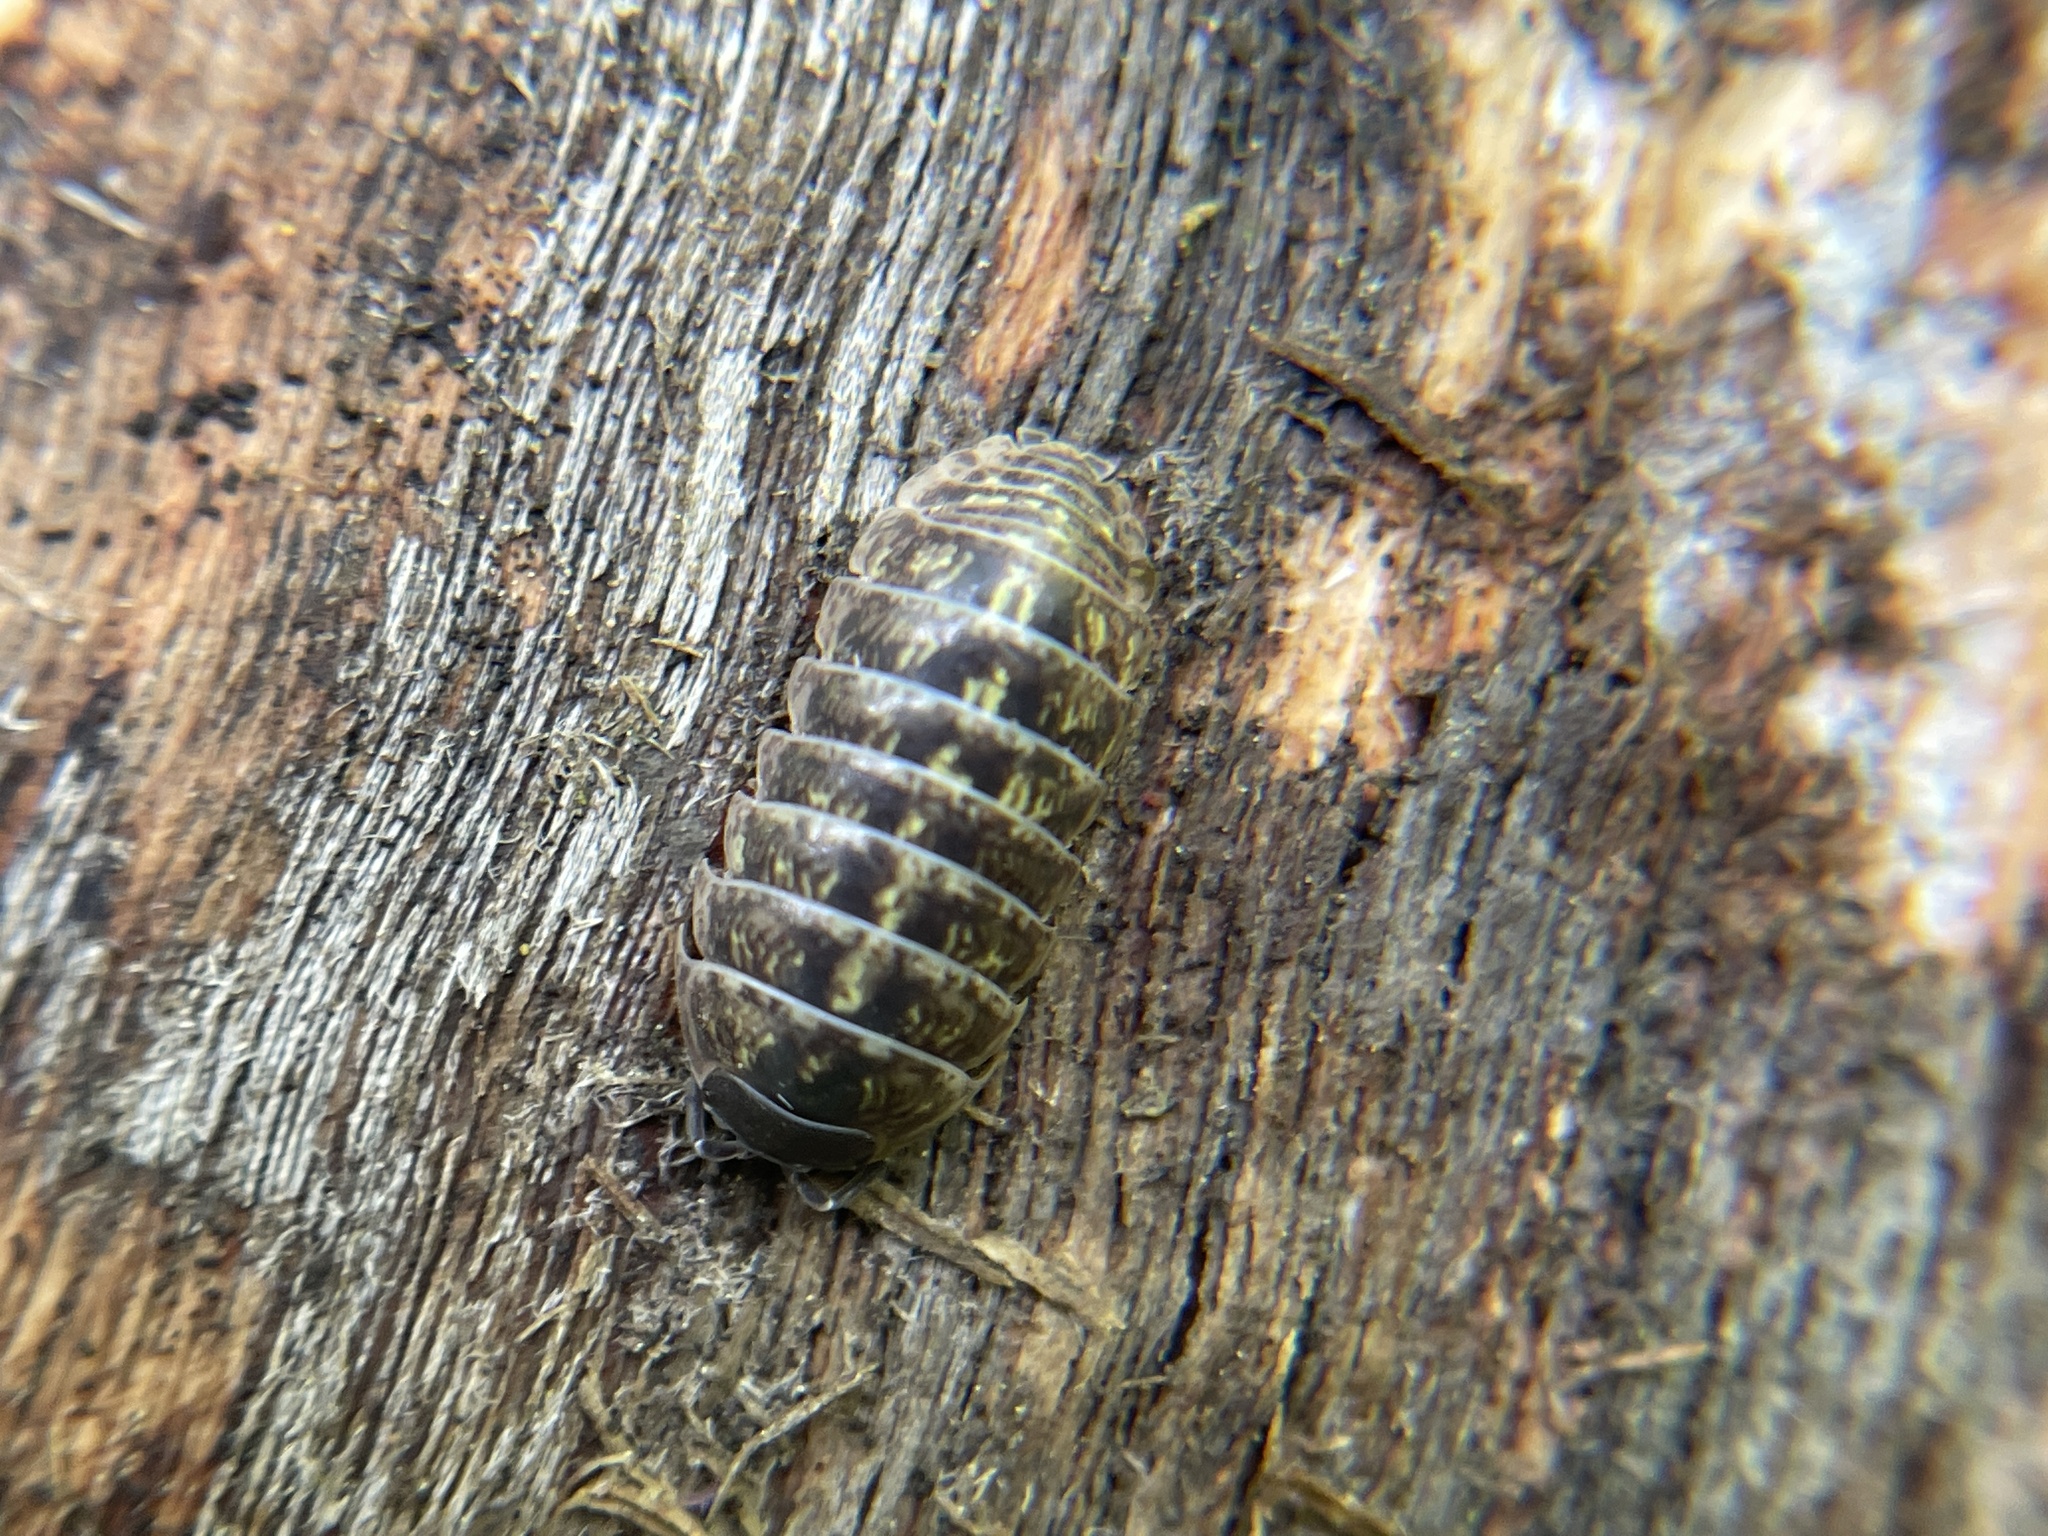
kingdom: Animalia
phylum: Arthropoda
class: Malacostraca
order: Isopoda
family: Armadillidiidae
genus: Armadillidium
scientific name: Armadillidium vulgare
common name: Common pill woodlouse
